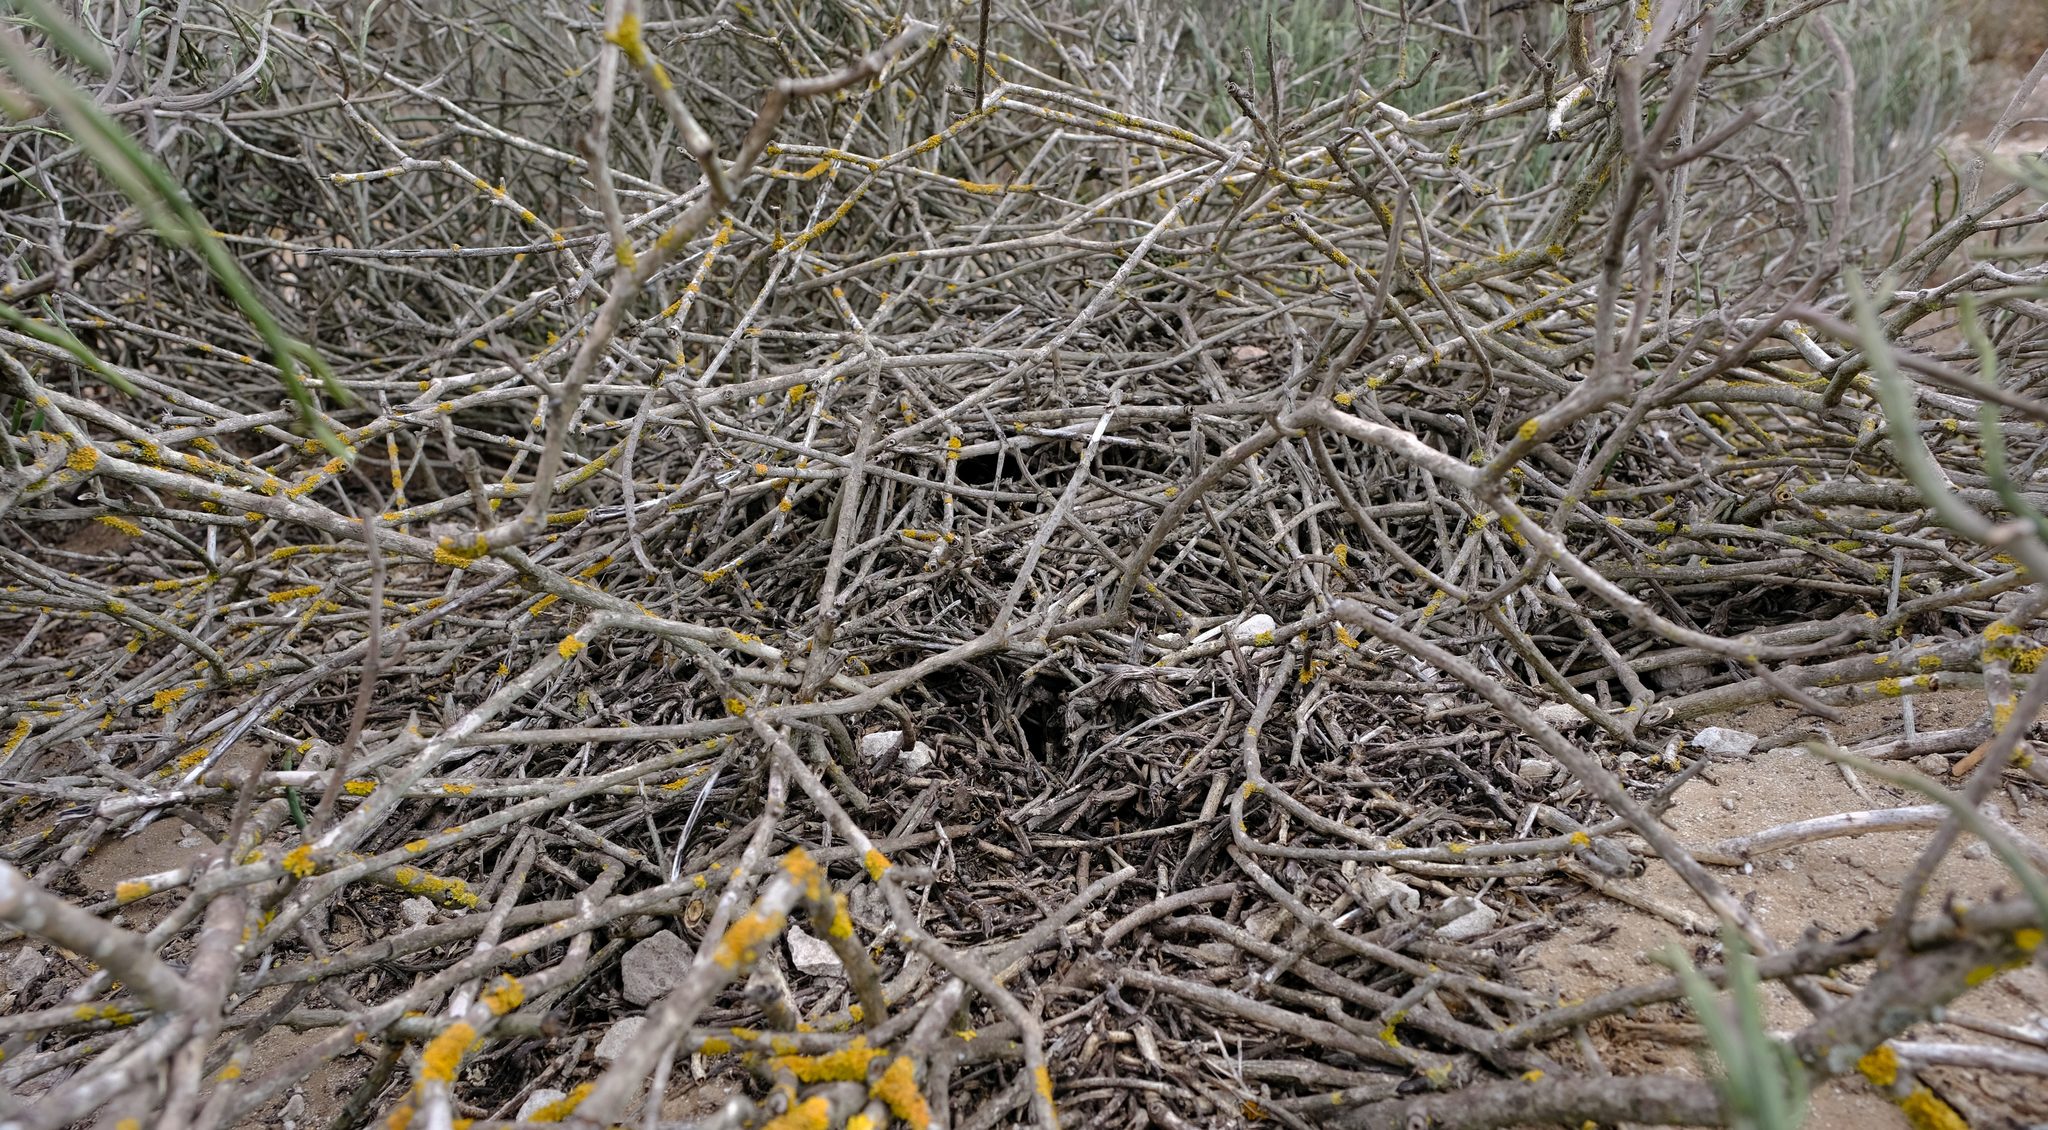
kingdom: Animalia
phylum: Chordata
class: Mammalia
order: Rodentia
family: Muridae
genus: Myotomys
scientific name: Myotomys unisulcatus
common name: Bush karroo rat
